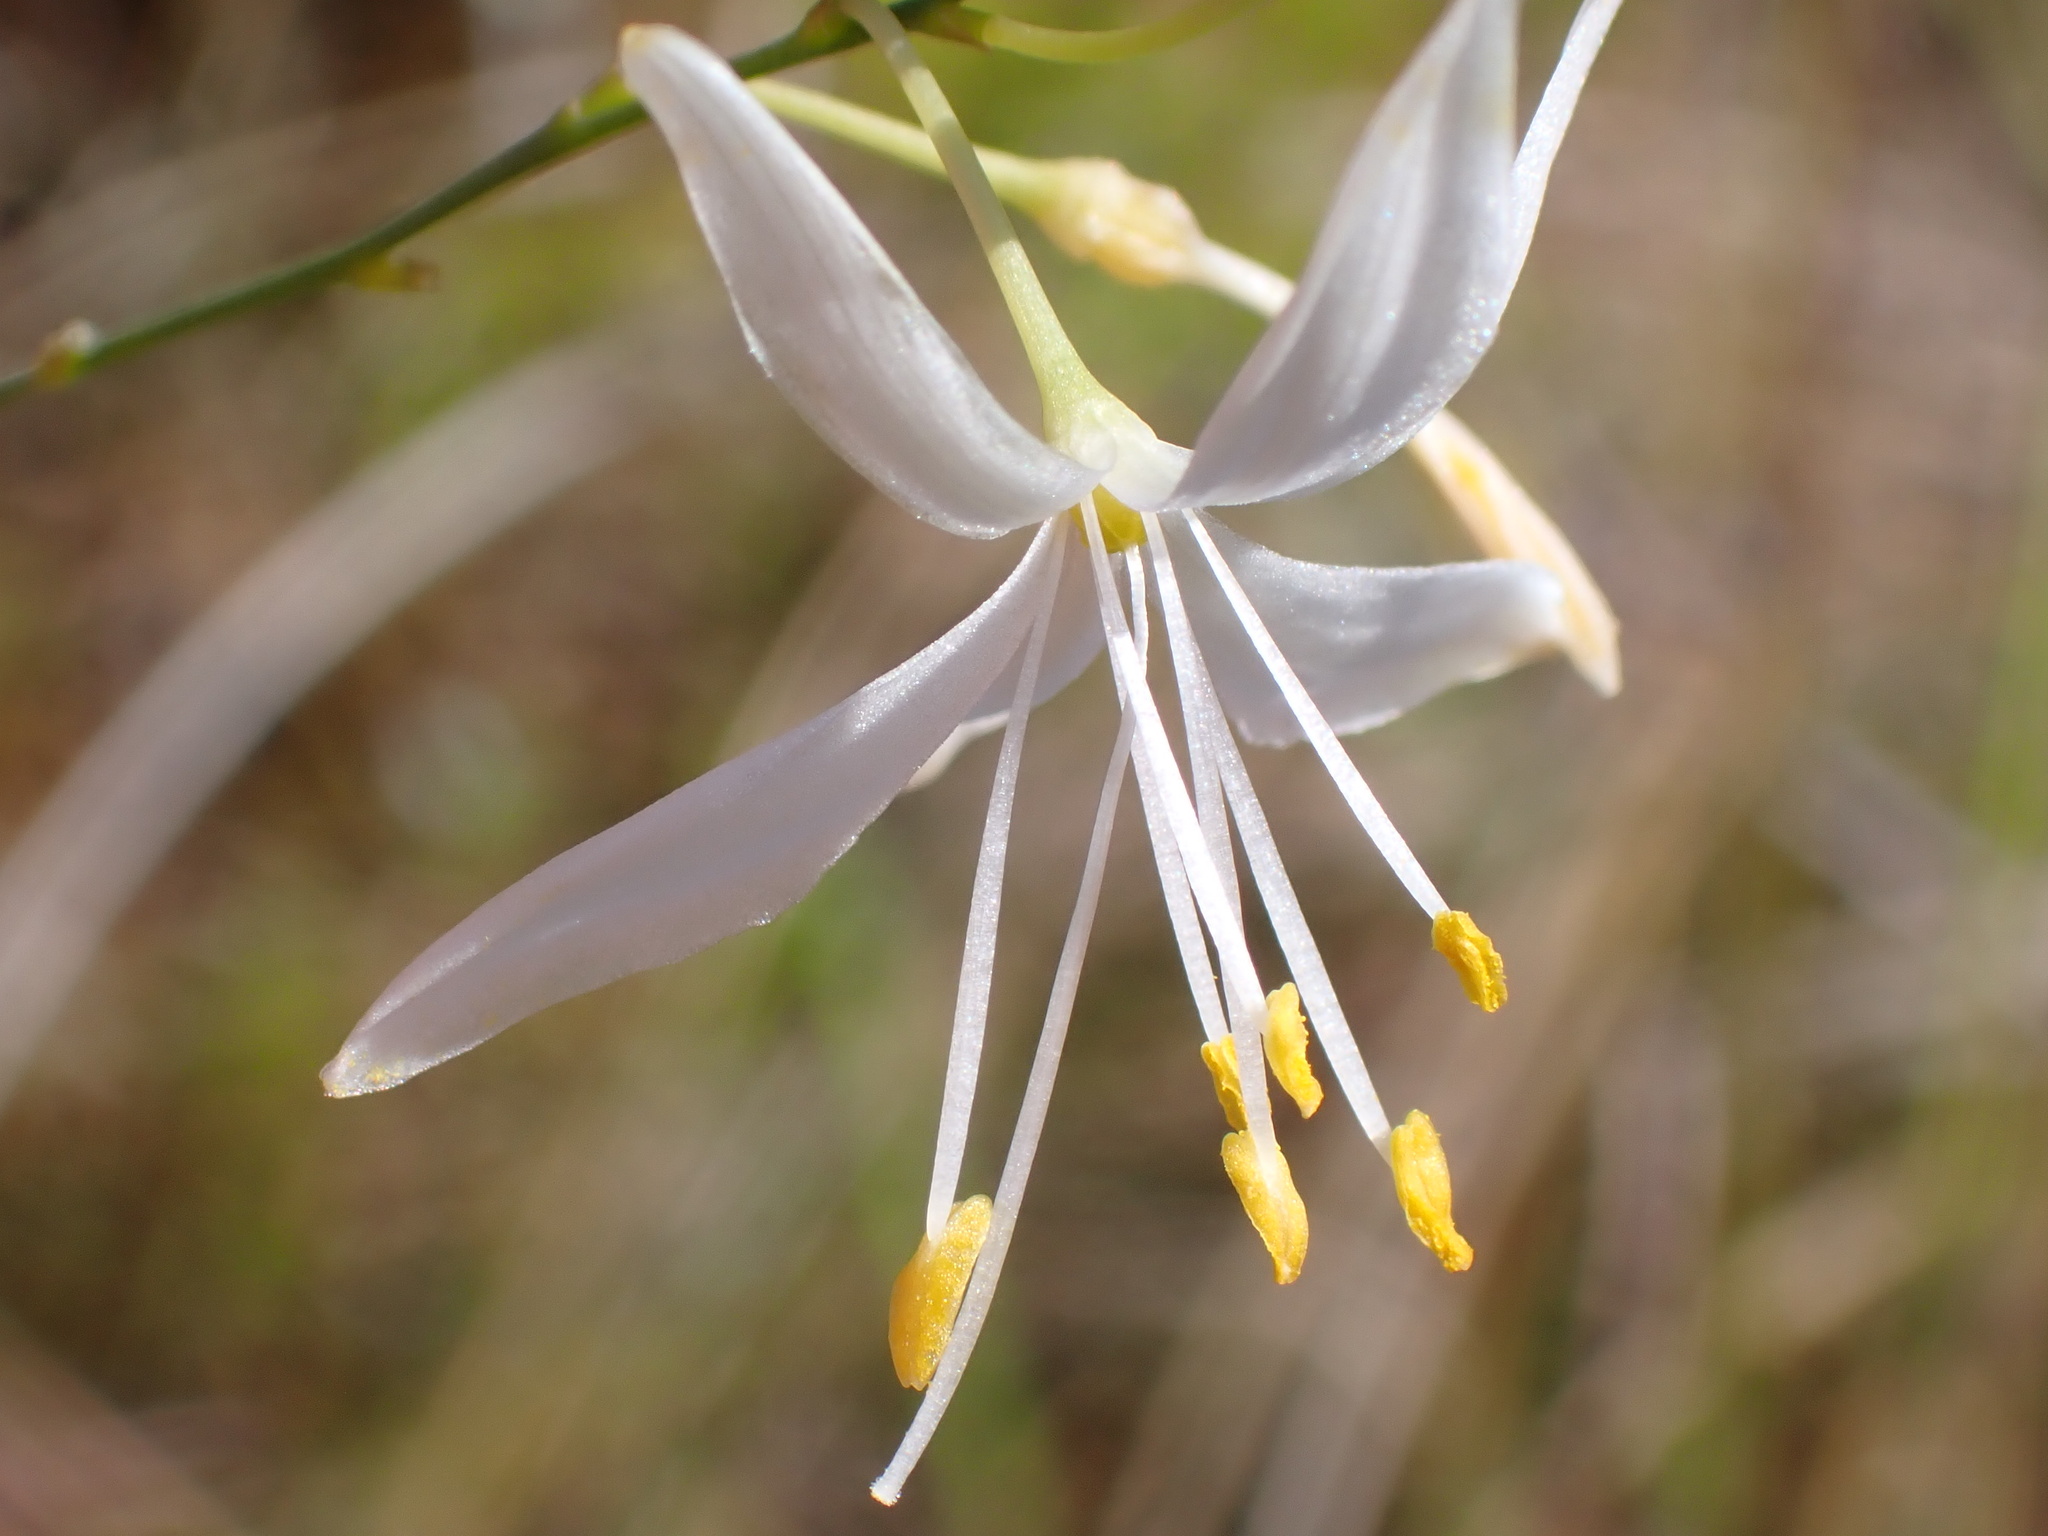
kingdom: Plantae
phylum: Tracheophyta
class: Liliopsida
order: Asparagales
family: Asparagaceae
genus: Anthericum
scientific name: Anthericum ramosum
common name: Branched st. bernard's-lily
